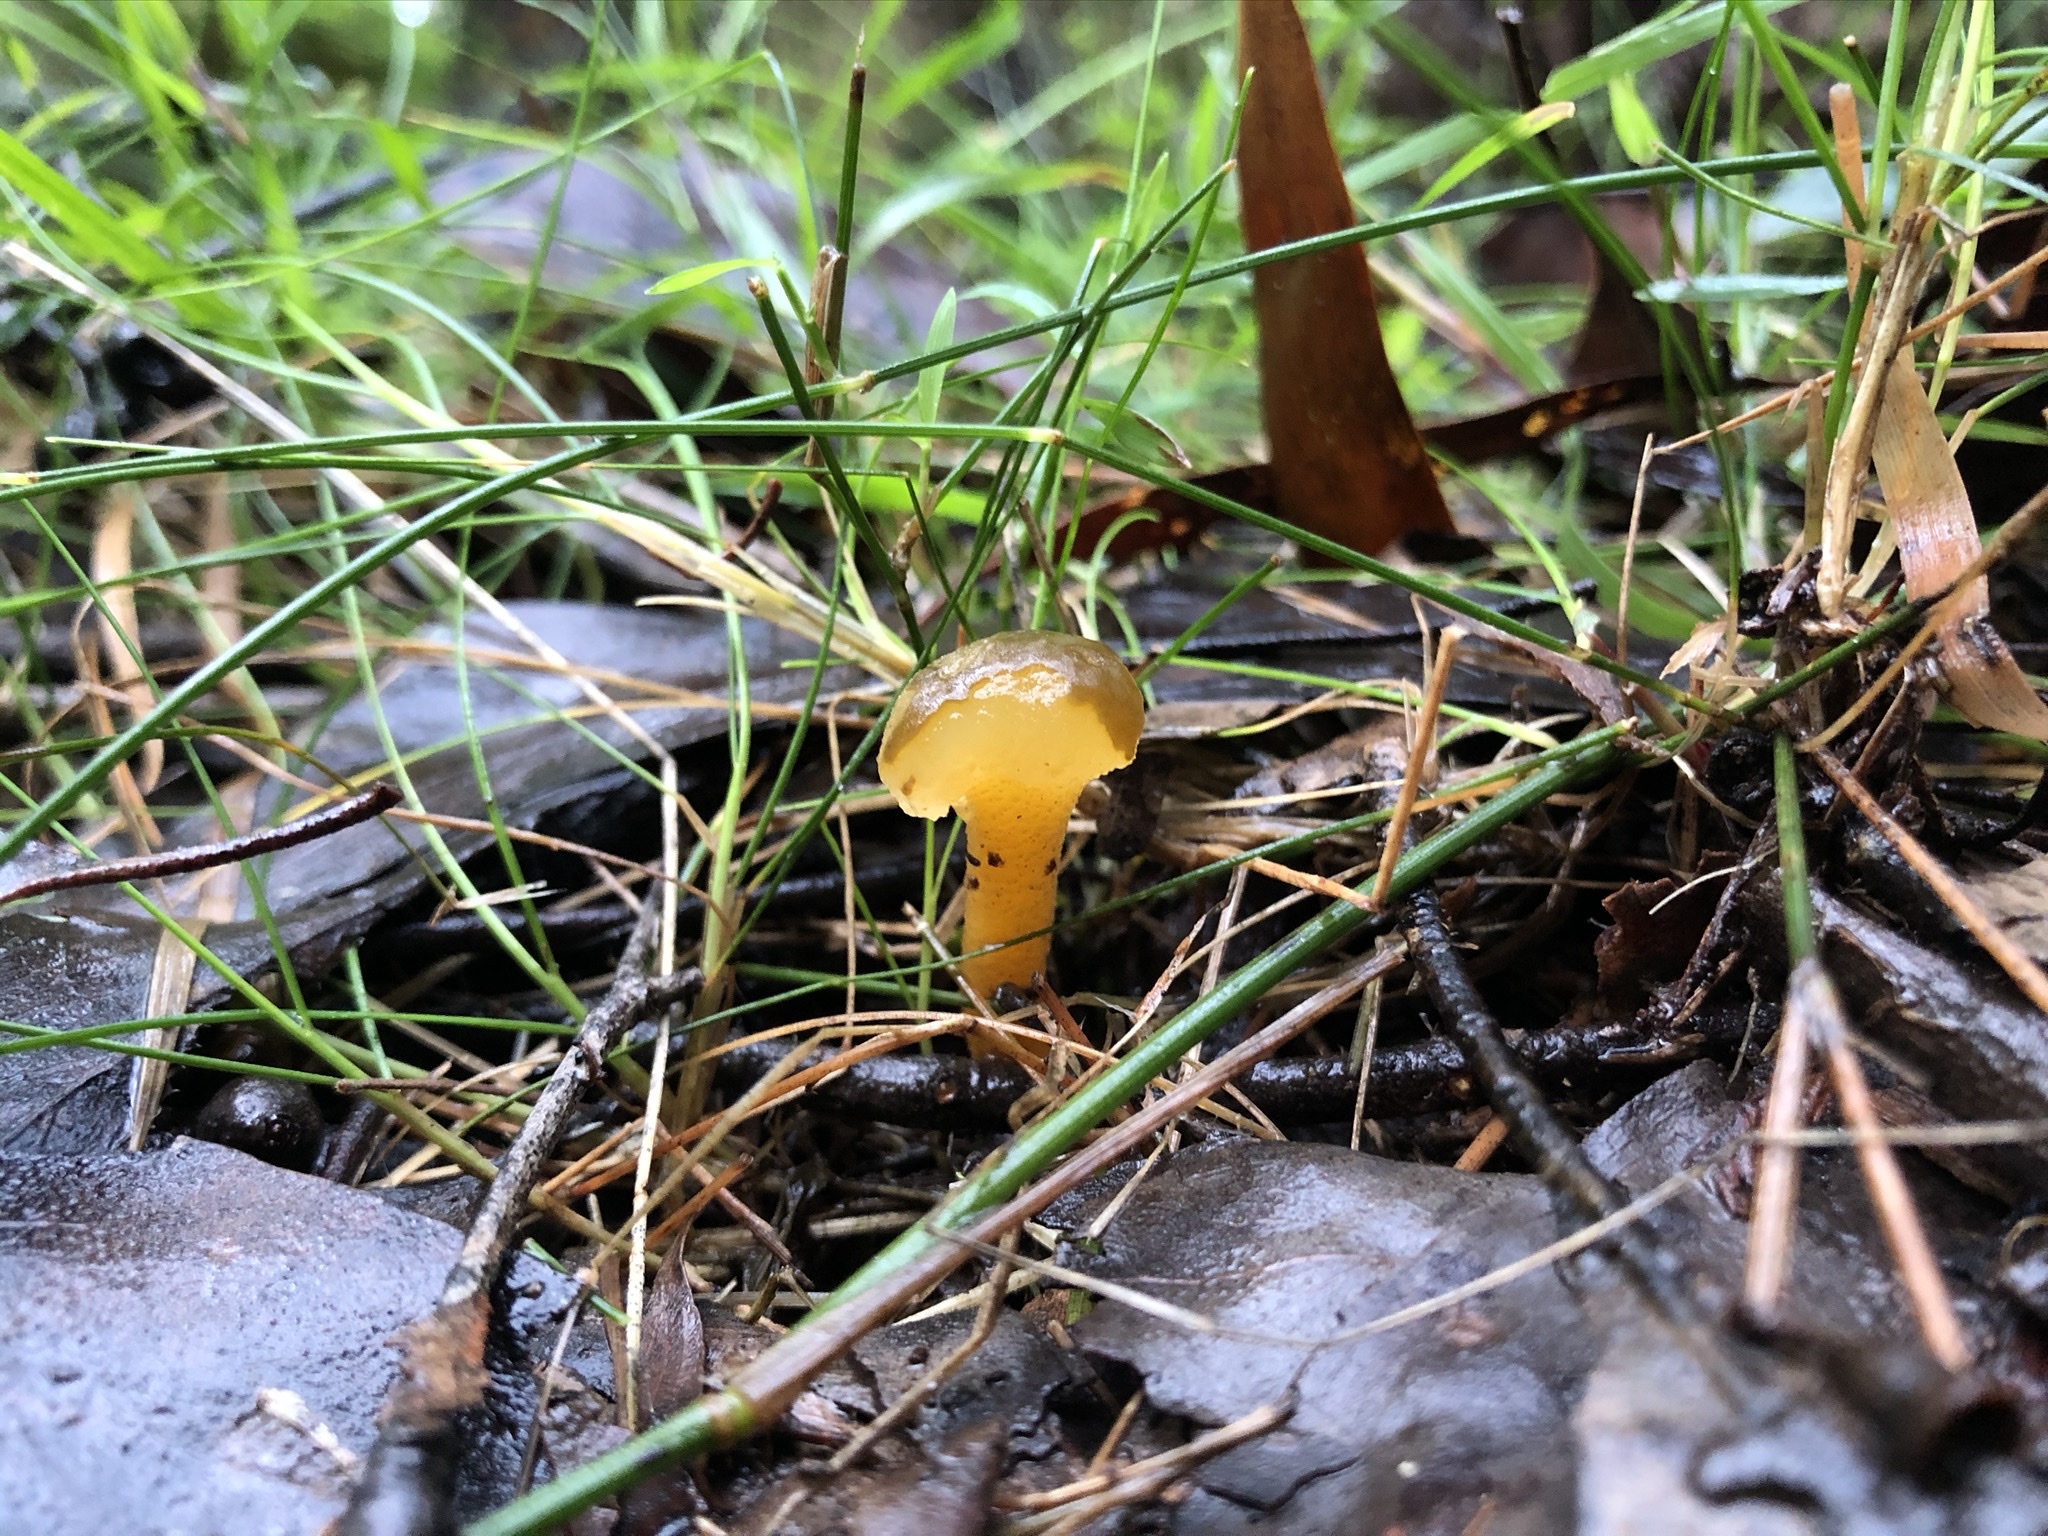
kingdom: Fungi
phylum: Ascomycota
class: Leotiomycetes
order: Leotiales
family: Leotiaceae
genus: Leotia
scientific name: Leotia lubrica
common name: Jellybaby
